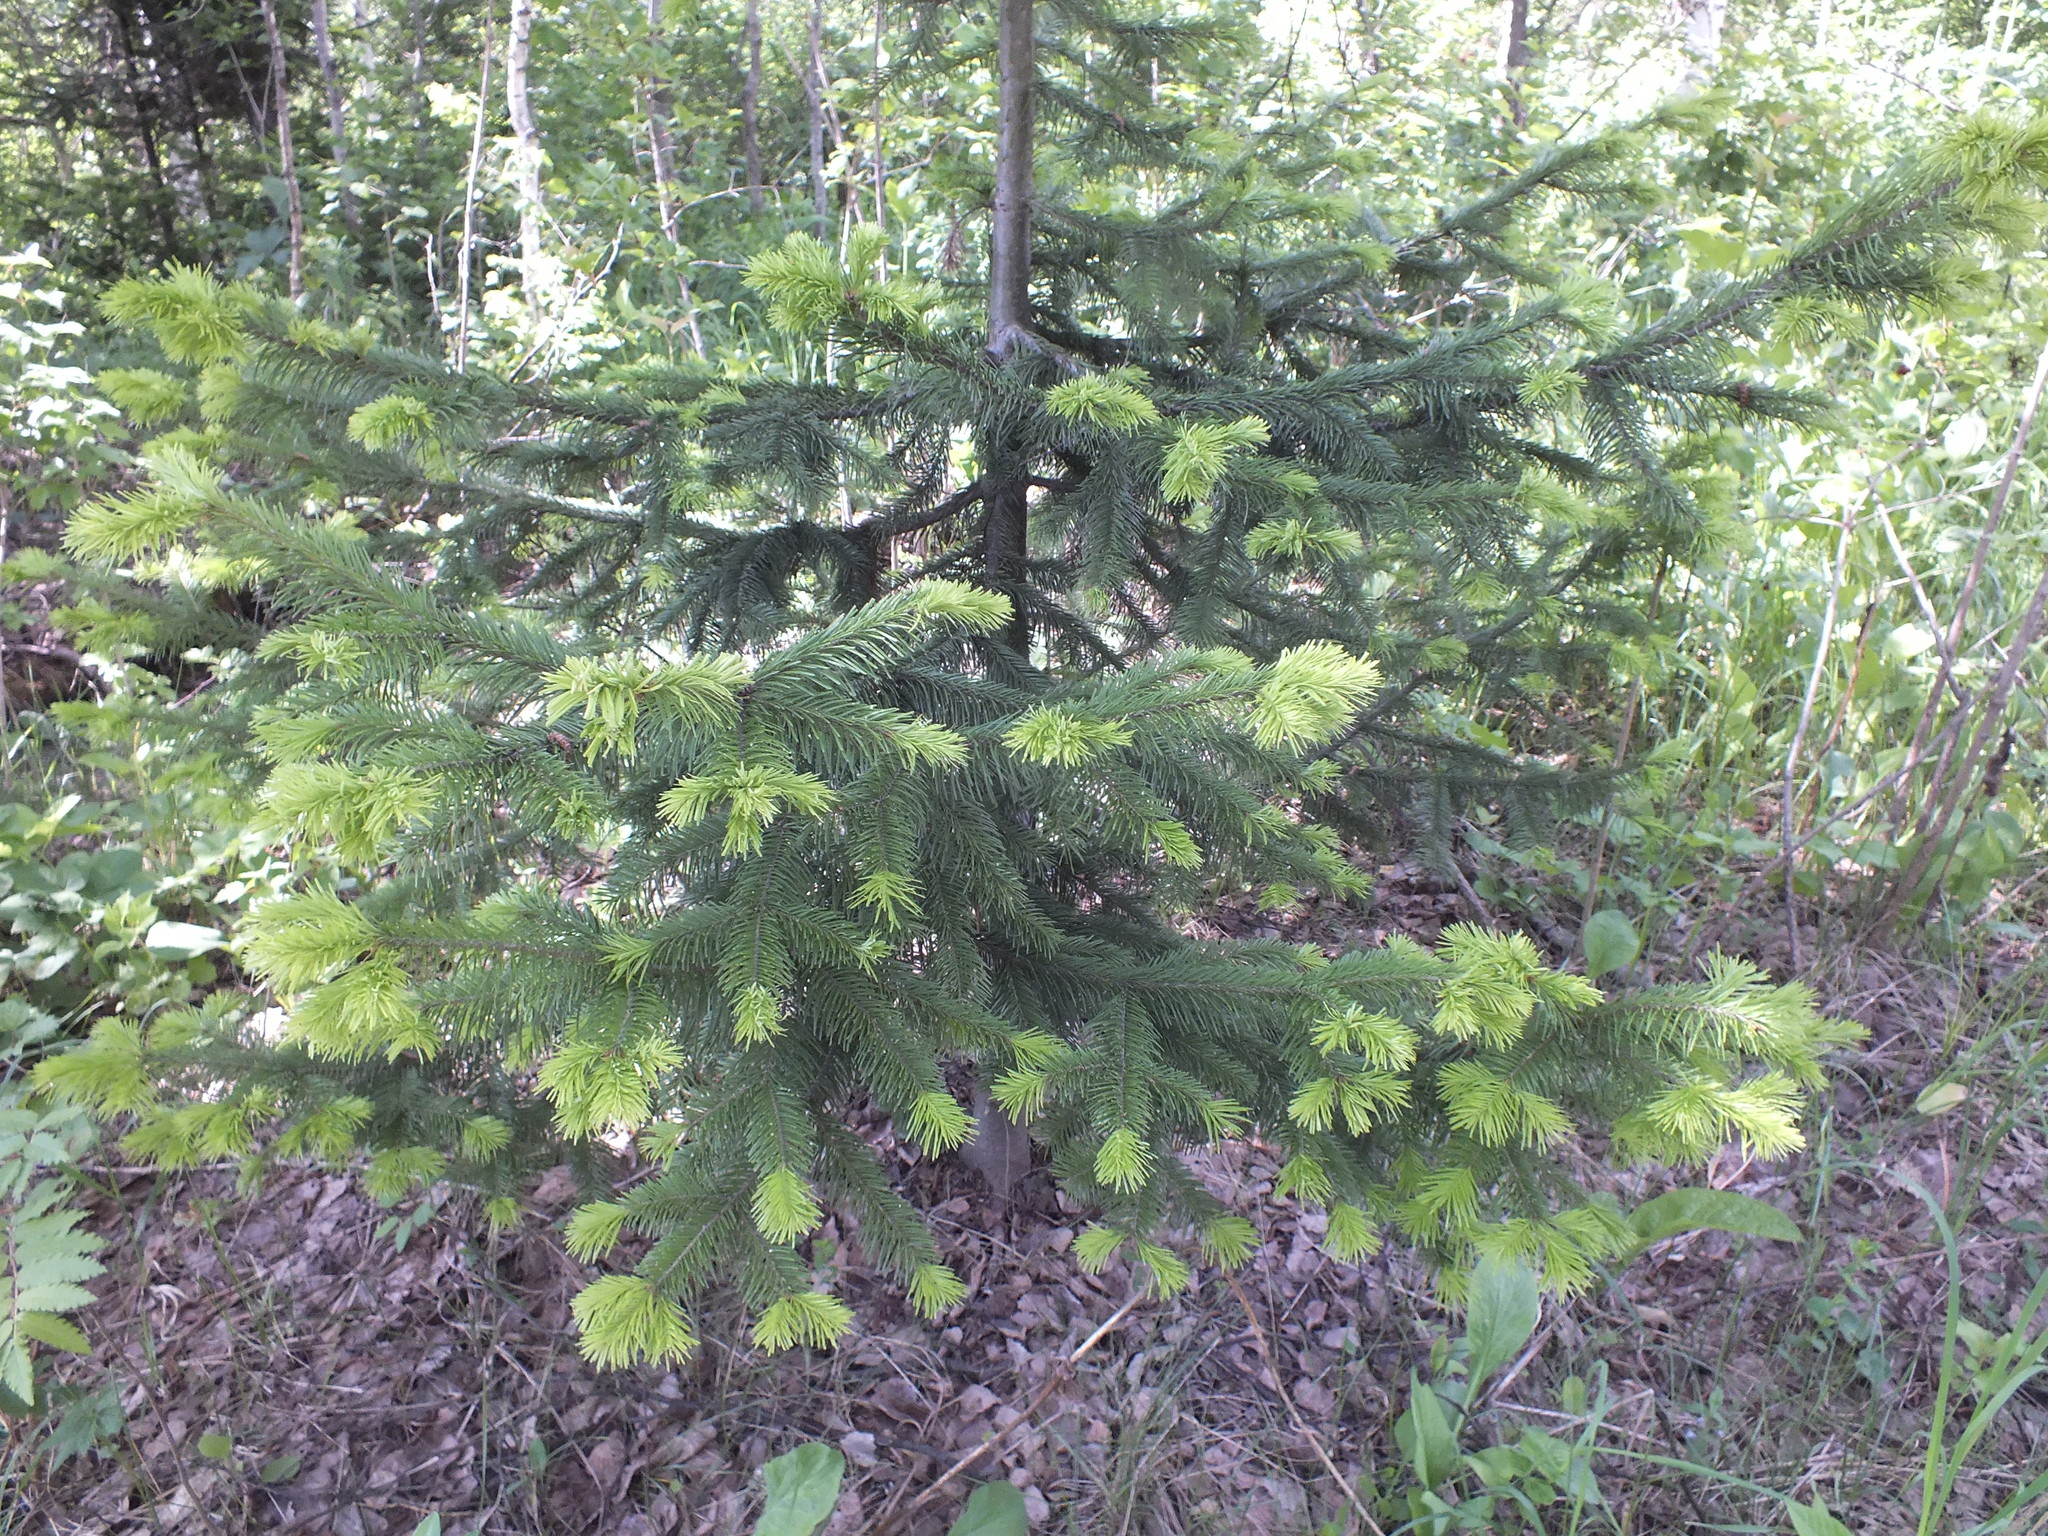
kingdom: Plantae
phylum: Tracheophyta
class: Pinopsida
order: Pinales
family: Pinaceae
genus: Abies
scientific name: Abies sibirica
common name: Siberian fir
